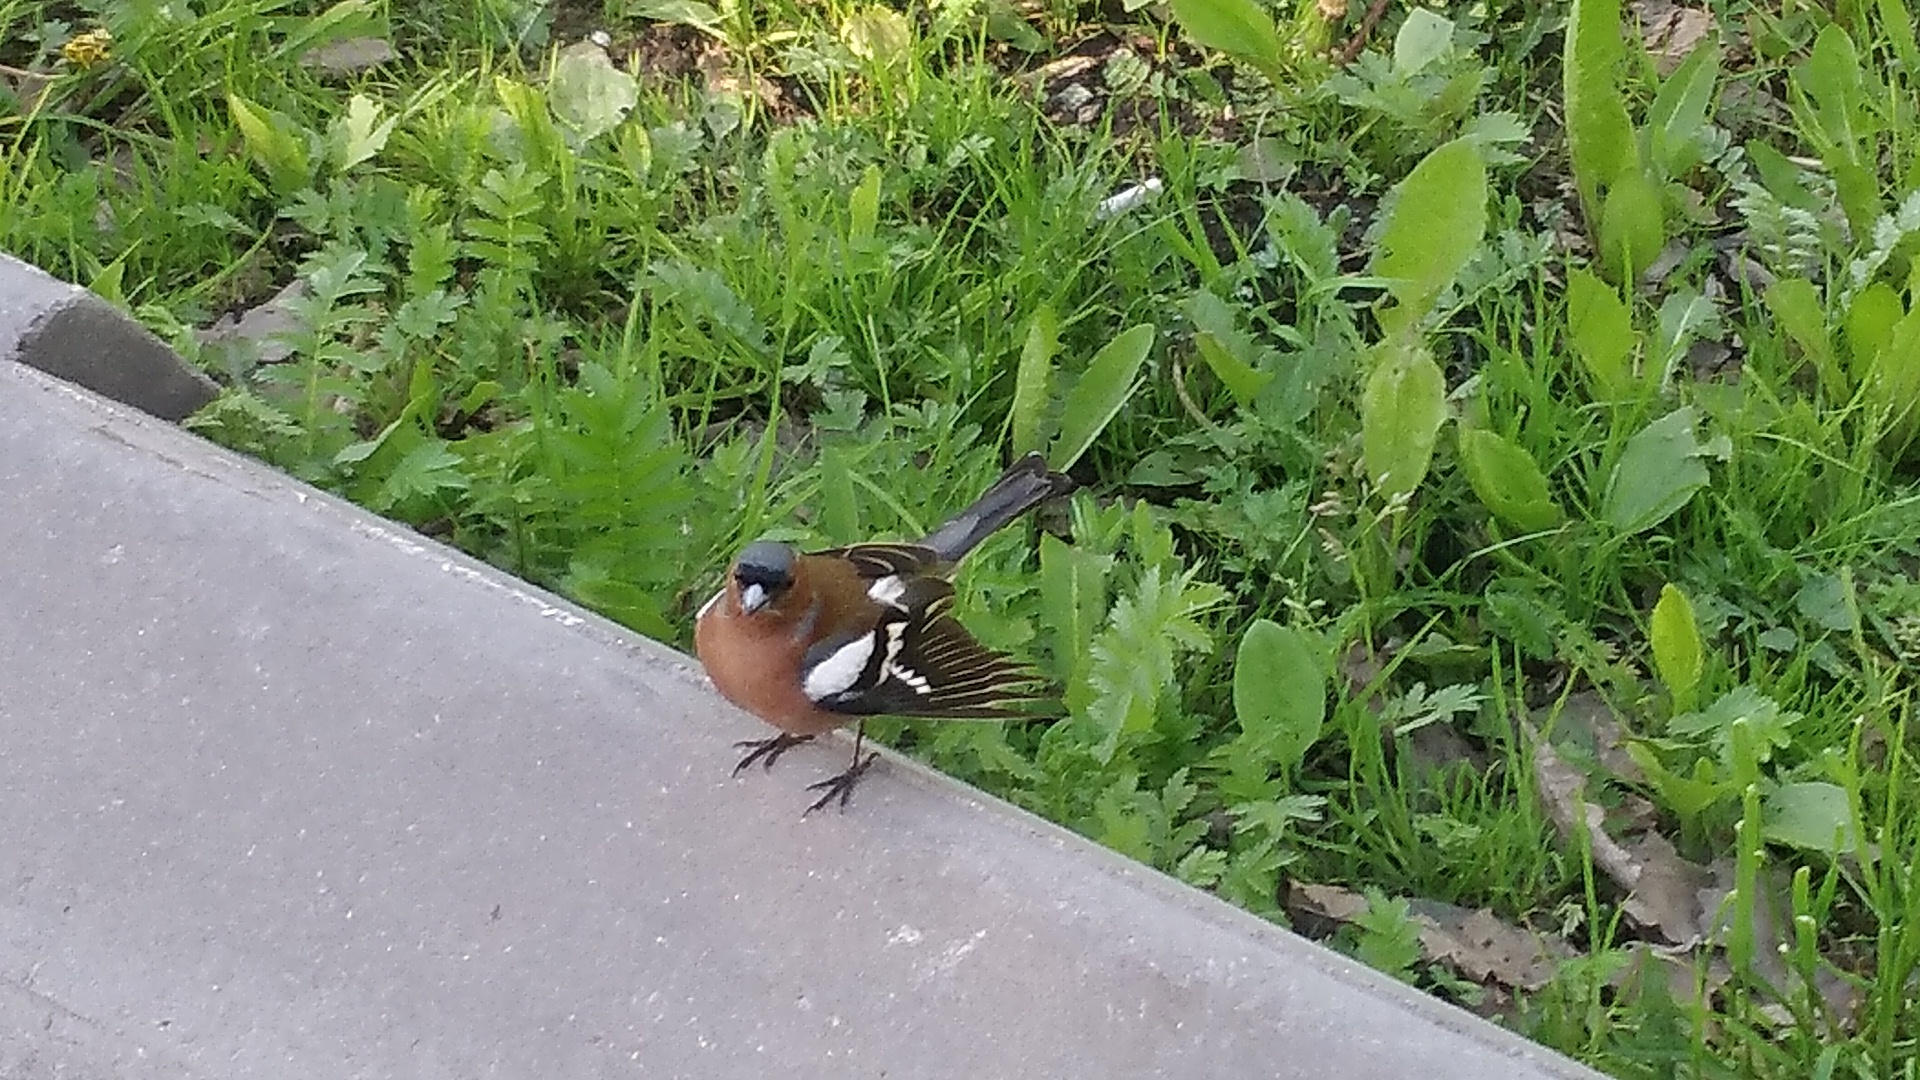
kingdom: Animalia
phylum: Chordata
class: Aves
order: Passeriformes
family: Fringillidae
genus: Fringilla
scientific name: Fringilla coelebs
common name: Common chaffinch
